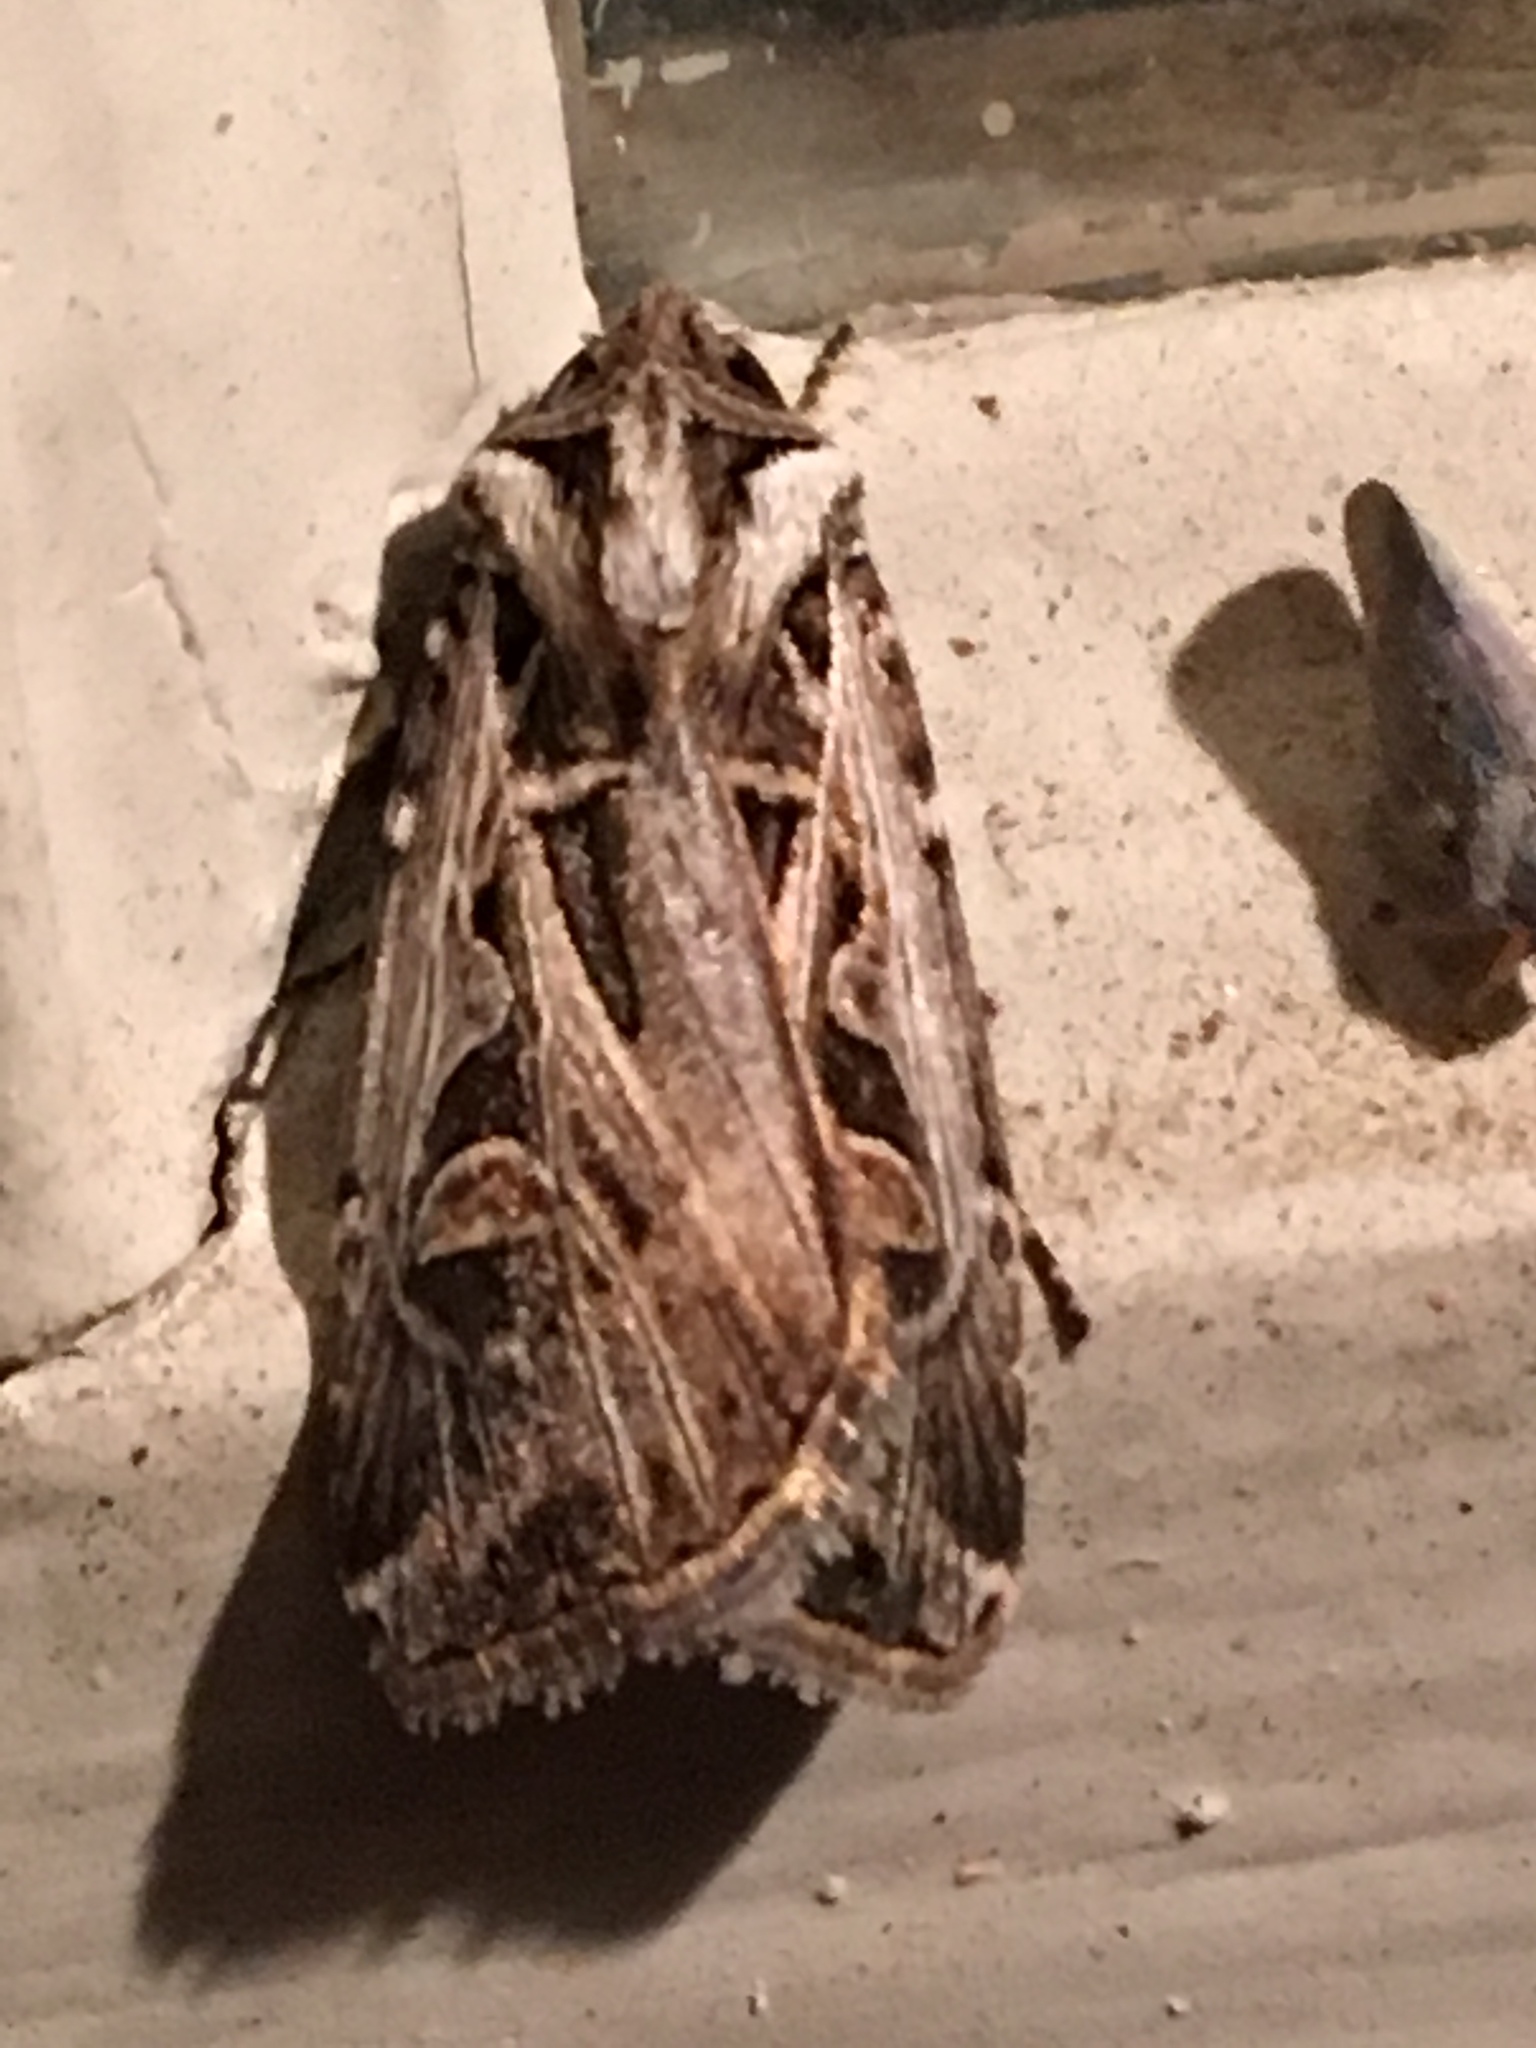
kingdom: Animalia
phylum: Arthropoda
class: Insecta
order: Lepidoptera
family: Noctuidae
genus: Feltia
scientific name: Feltia jaculifera
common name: Dingy cutworm moth
